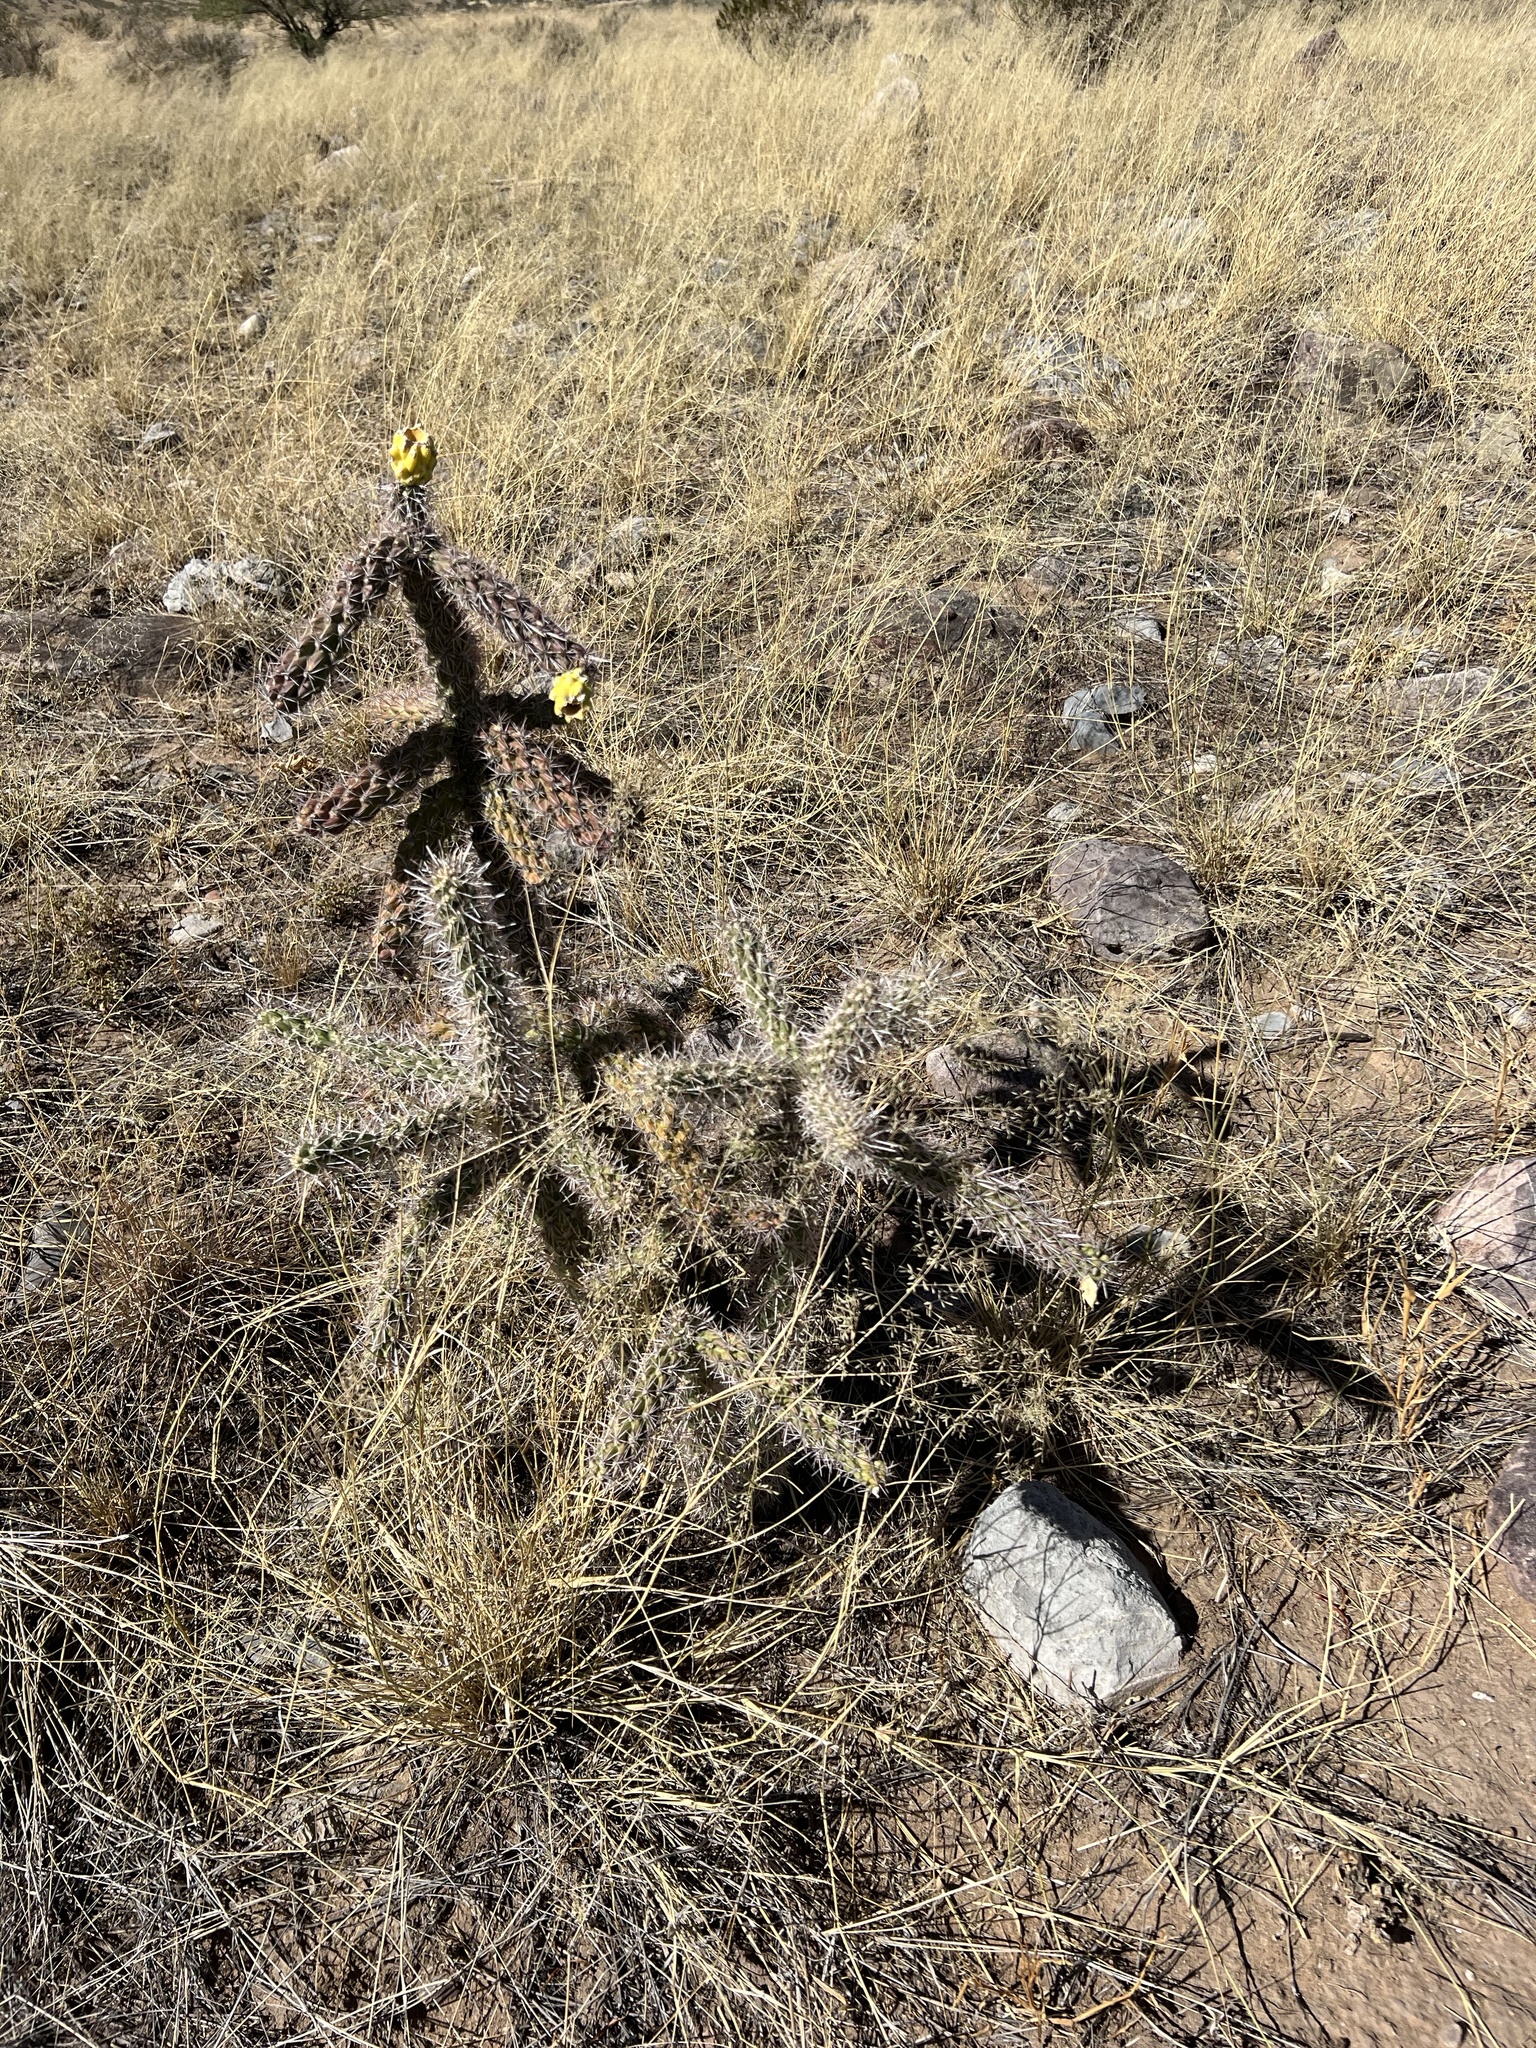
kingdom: Plantae
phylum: Tracheophyta
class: Magnoliopsida
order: Caryophyllales
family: Cactaceae
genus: Cylindropuntia
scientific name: Cylindropuntia imbricata
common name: Candelabrum cactus
